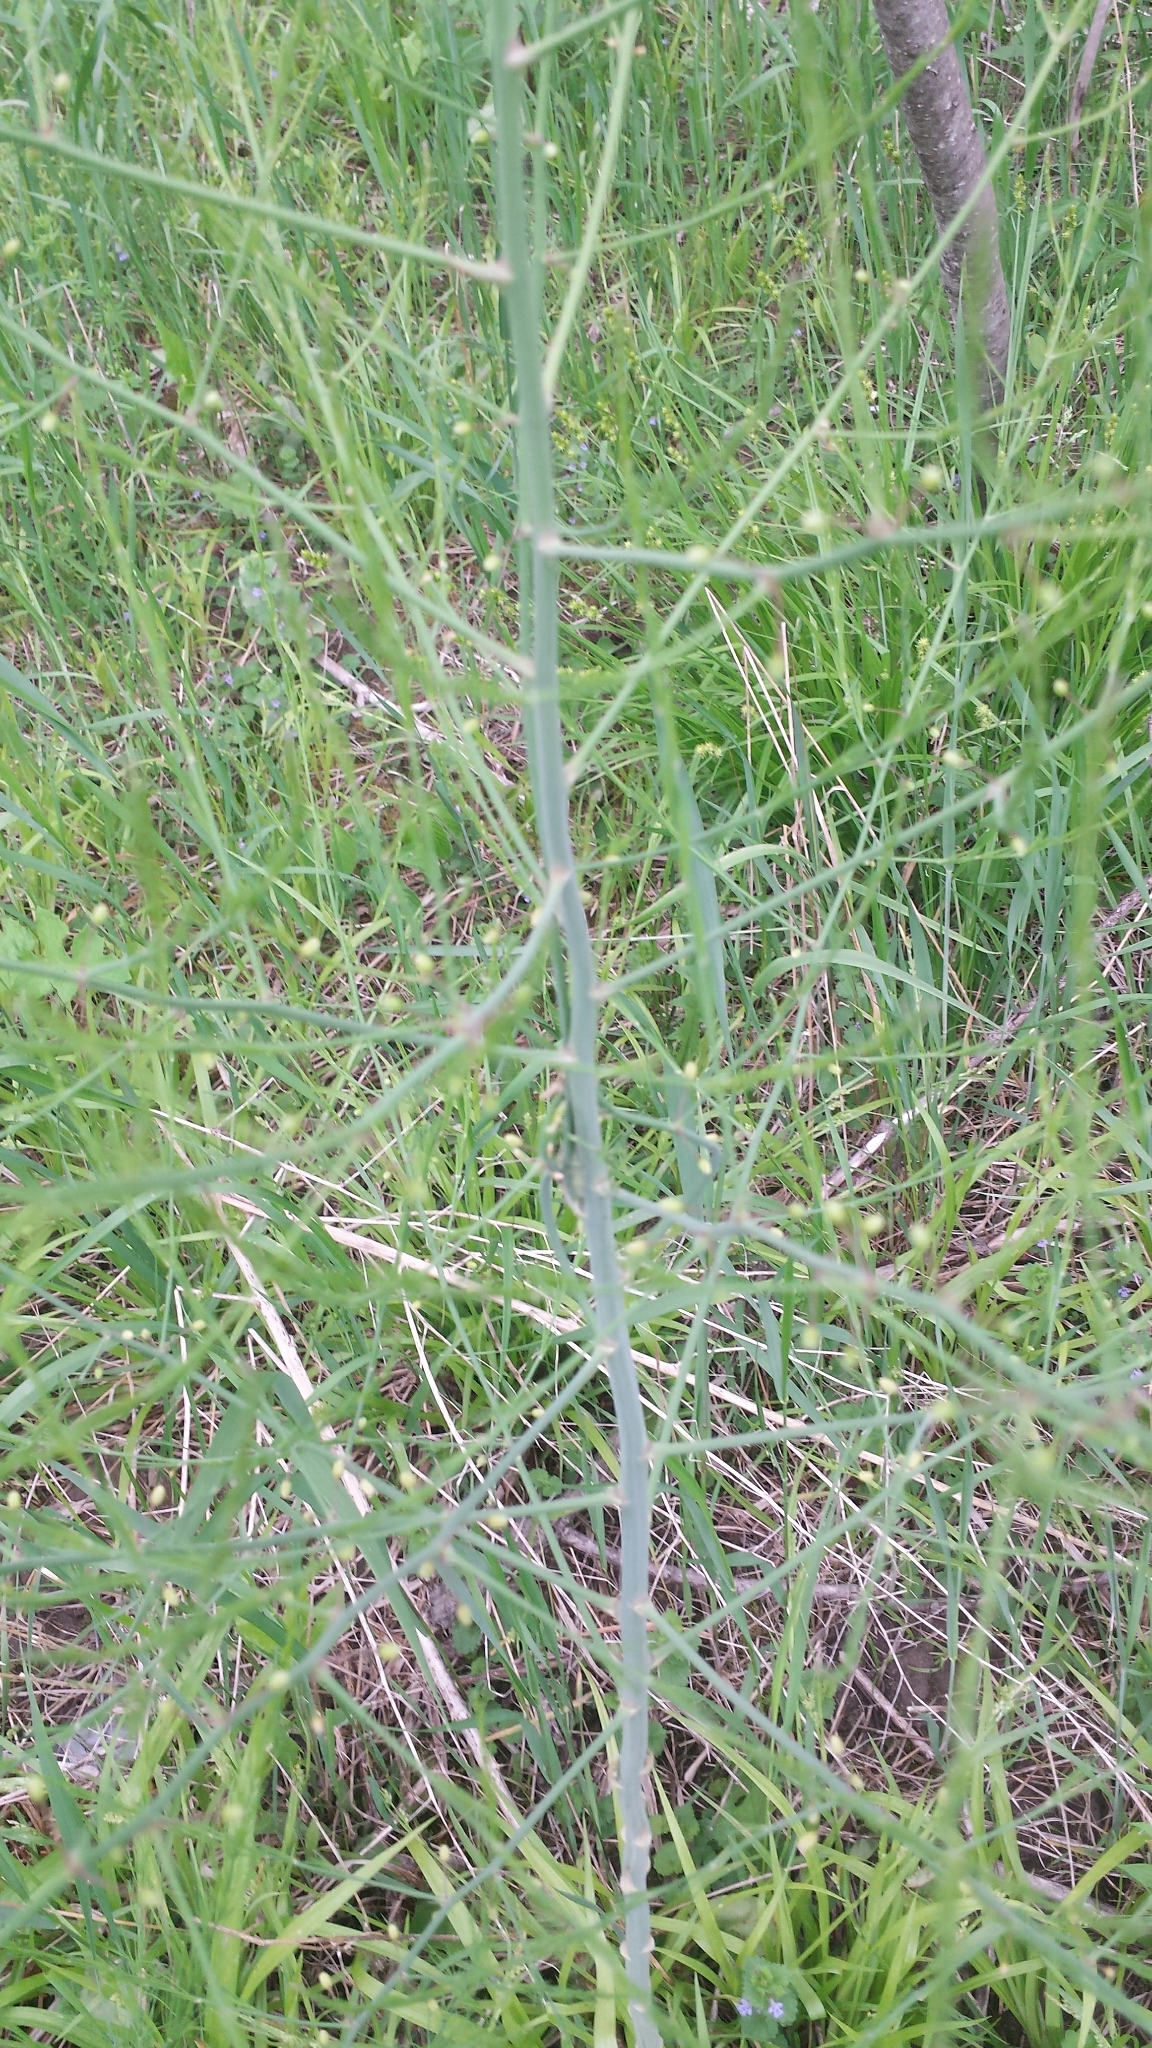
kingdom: Plantae
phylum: Tracheophyta
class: Liliopsida
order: Asparagales
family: Asparagaceae
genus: Asparagus
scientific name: Asparagus officinalis
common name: Garden asparagus
